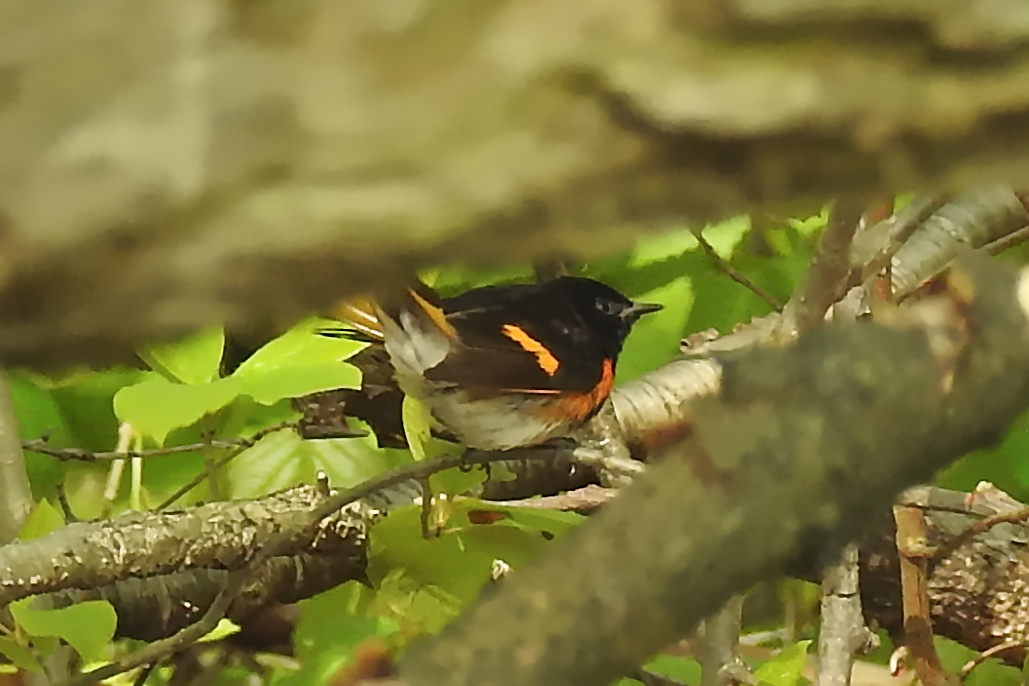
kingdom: Animalia
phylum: Chordata
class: Aves
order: Passeriformes
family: Parulidae
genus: Setophaga
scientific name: Setophaga ruticilla
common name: American redstart
